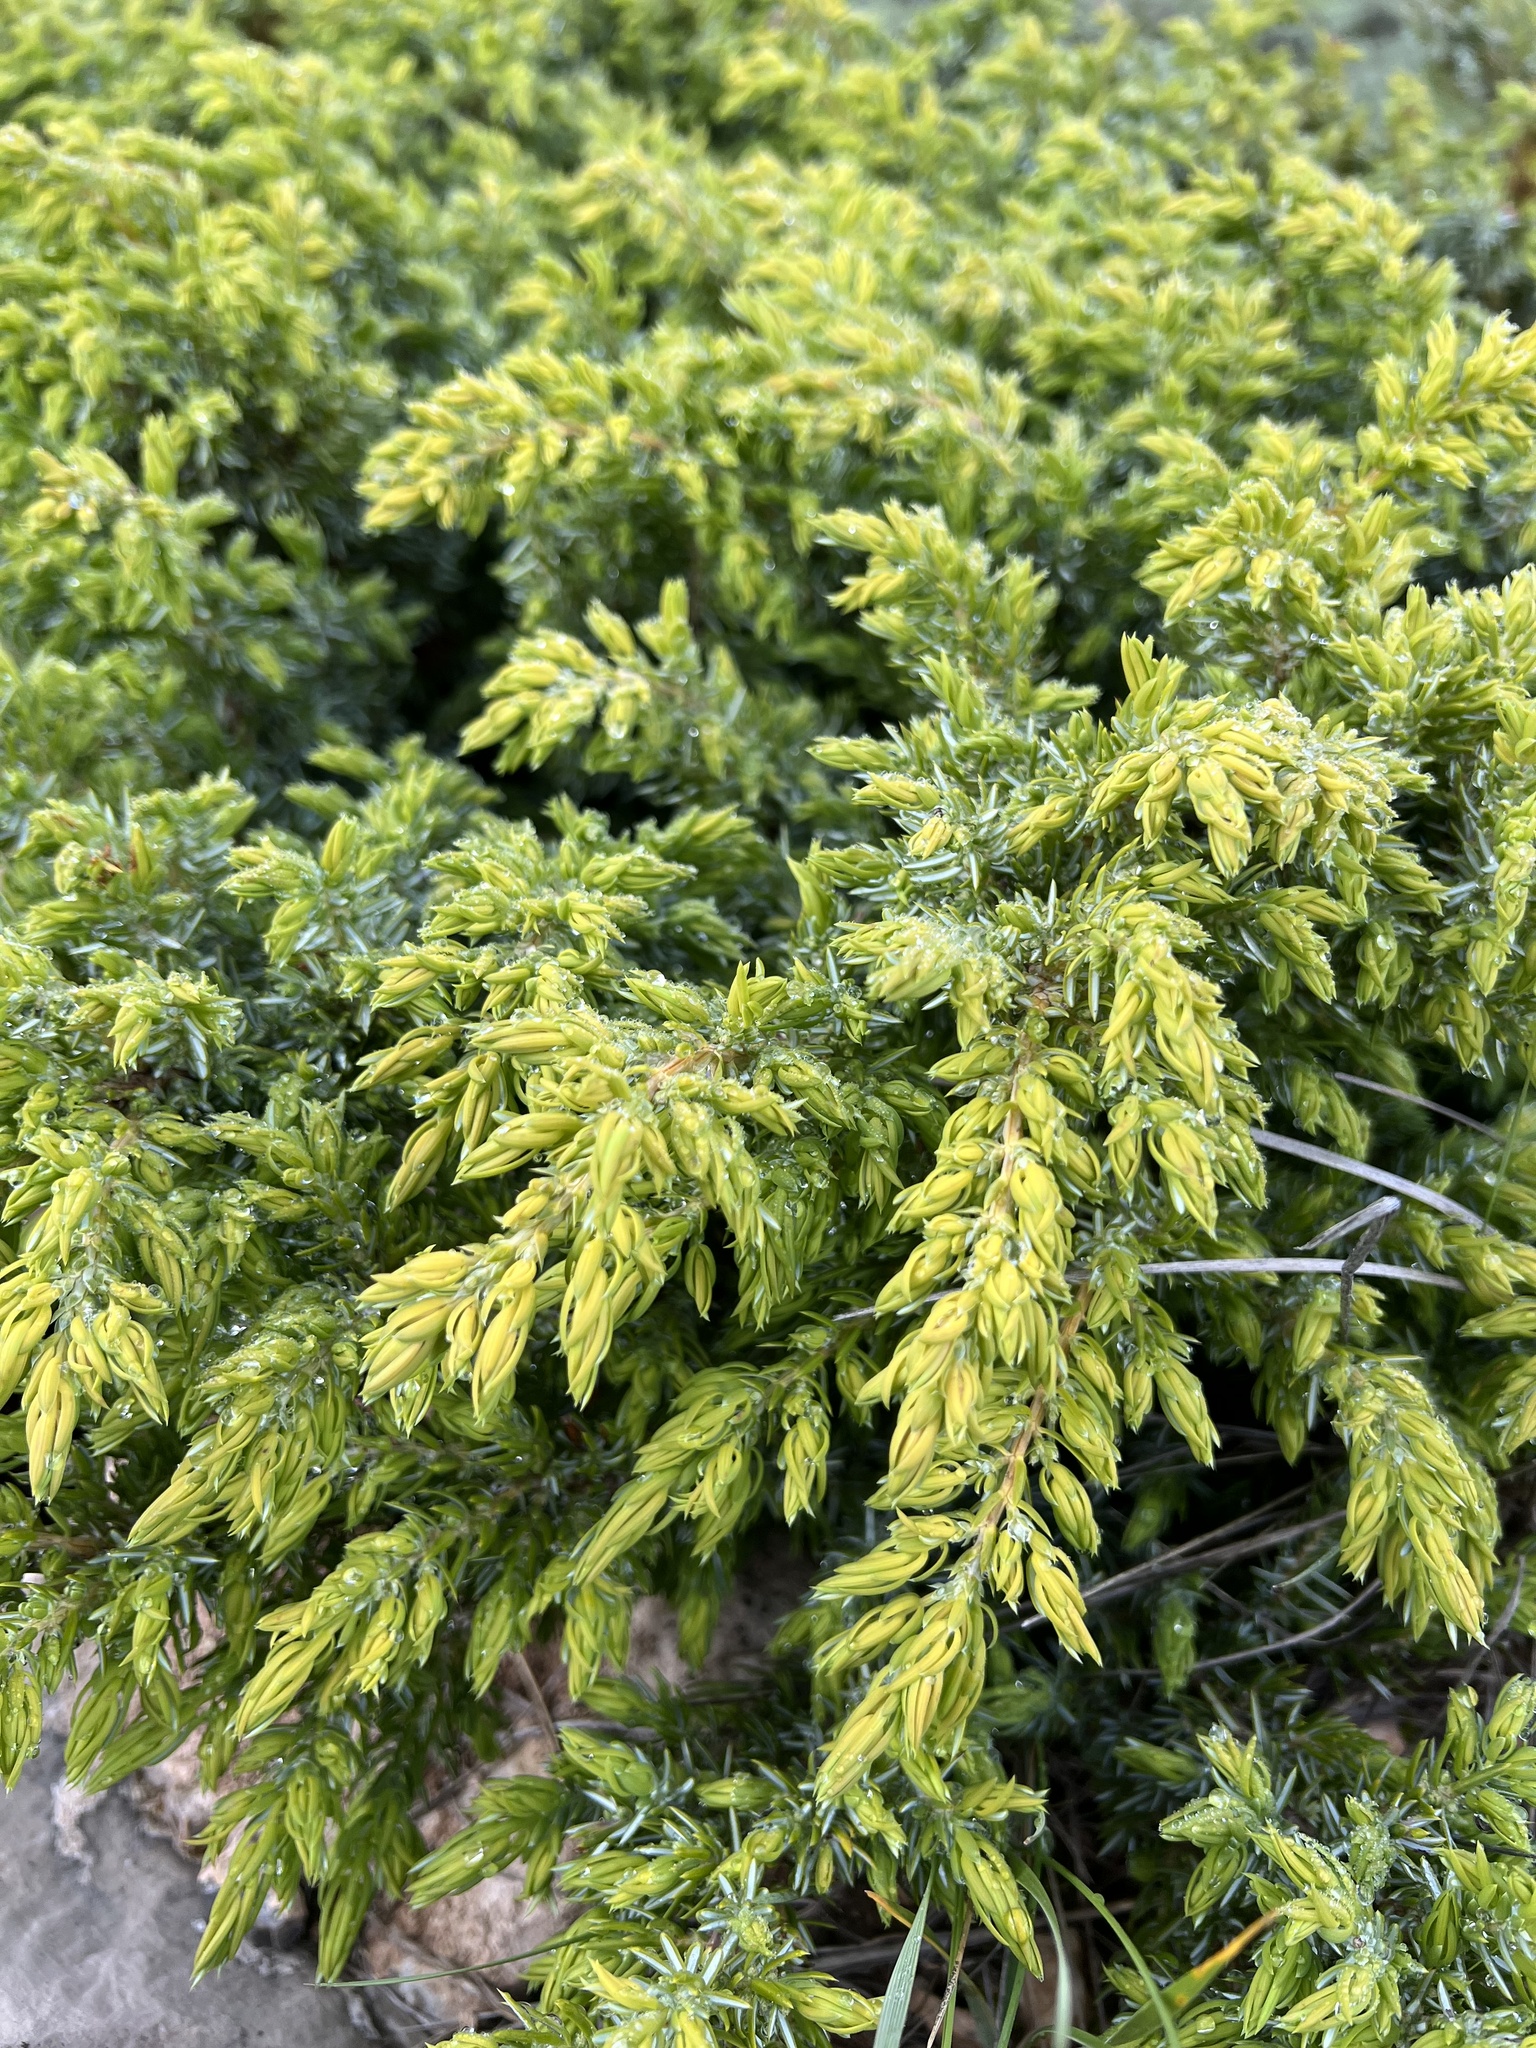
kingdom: Plantae
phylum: Tracheophyta
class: Pinopsida
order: Pinales
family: Cupressaceae
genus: Juniperus
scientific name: Juniperus communis
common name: Common juniper
